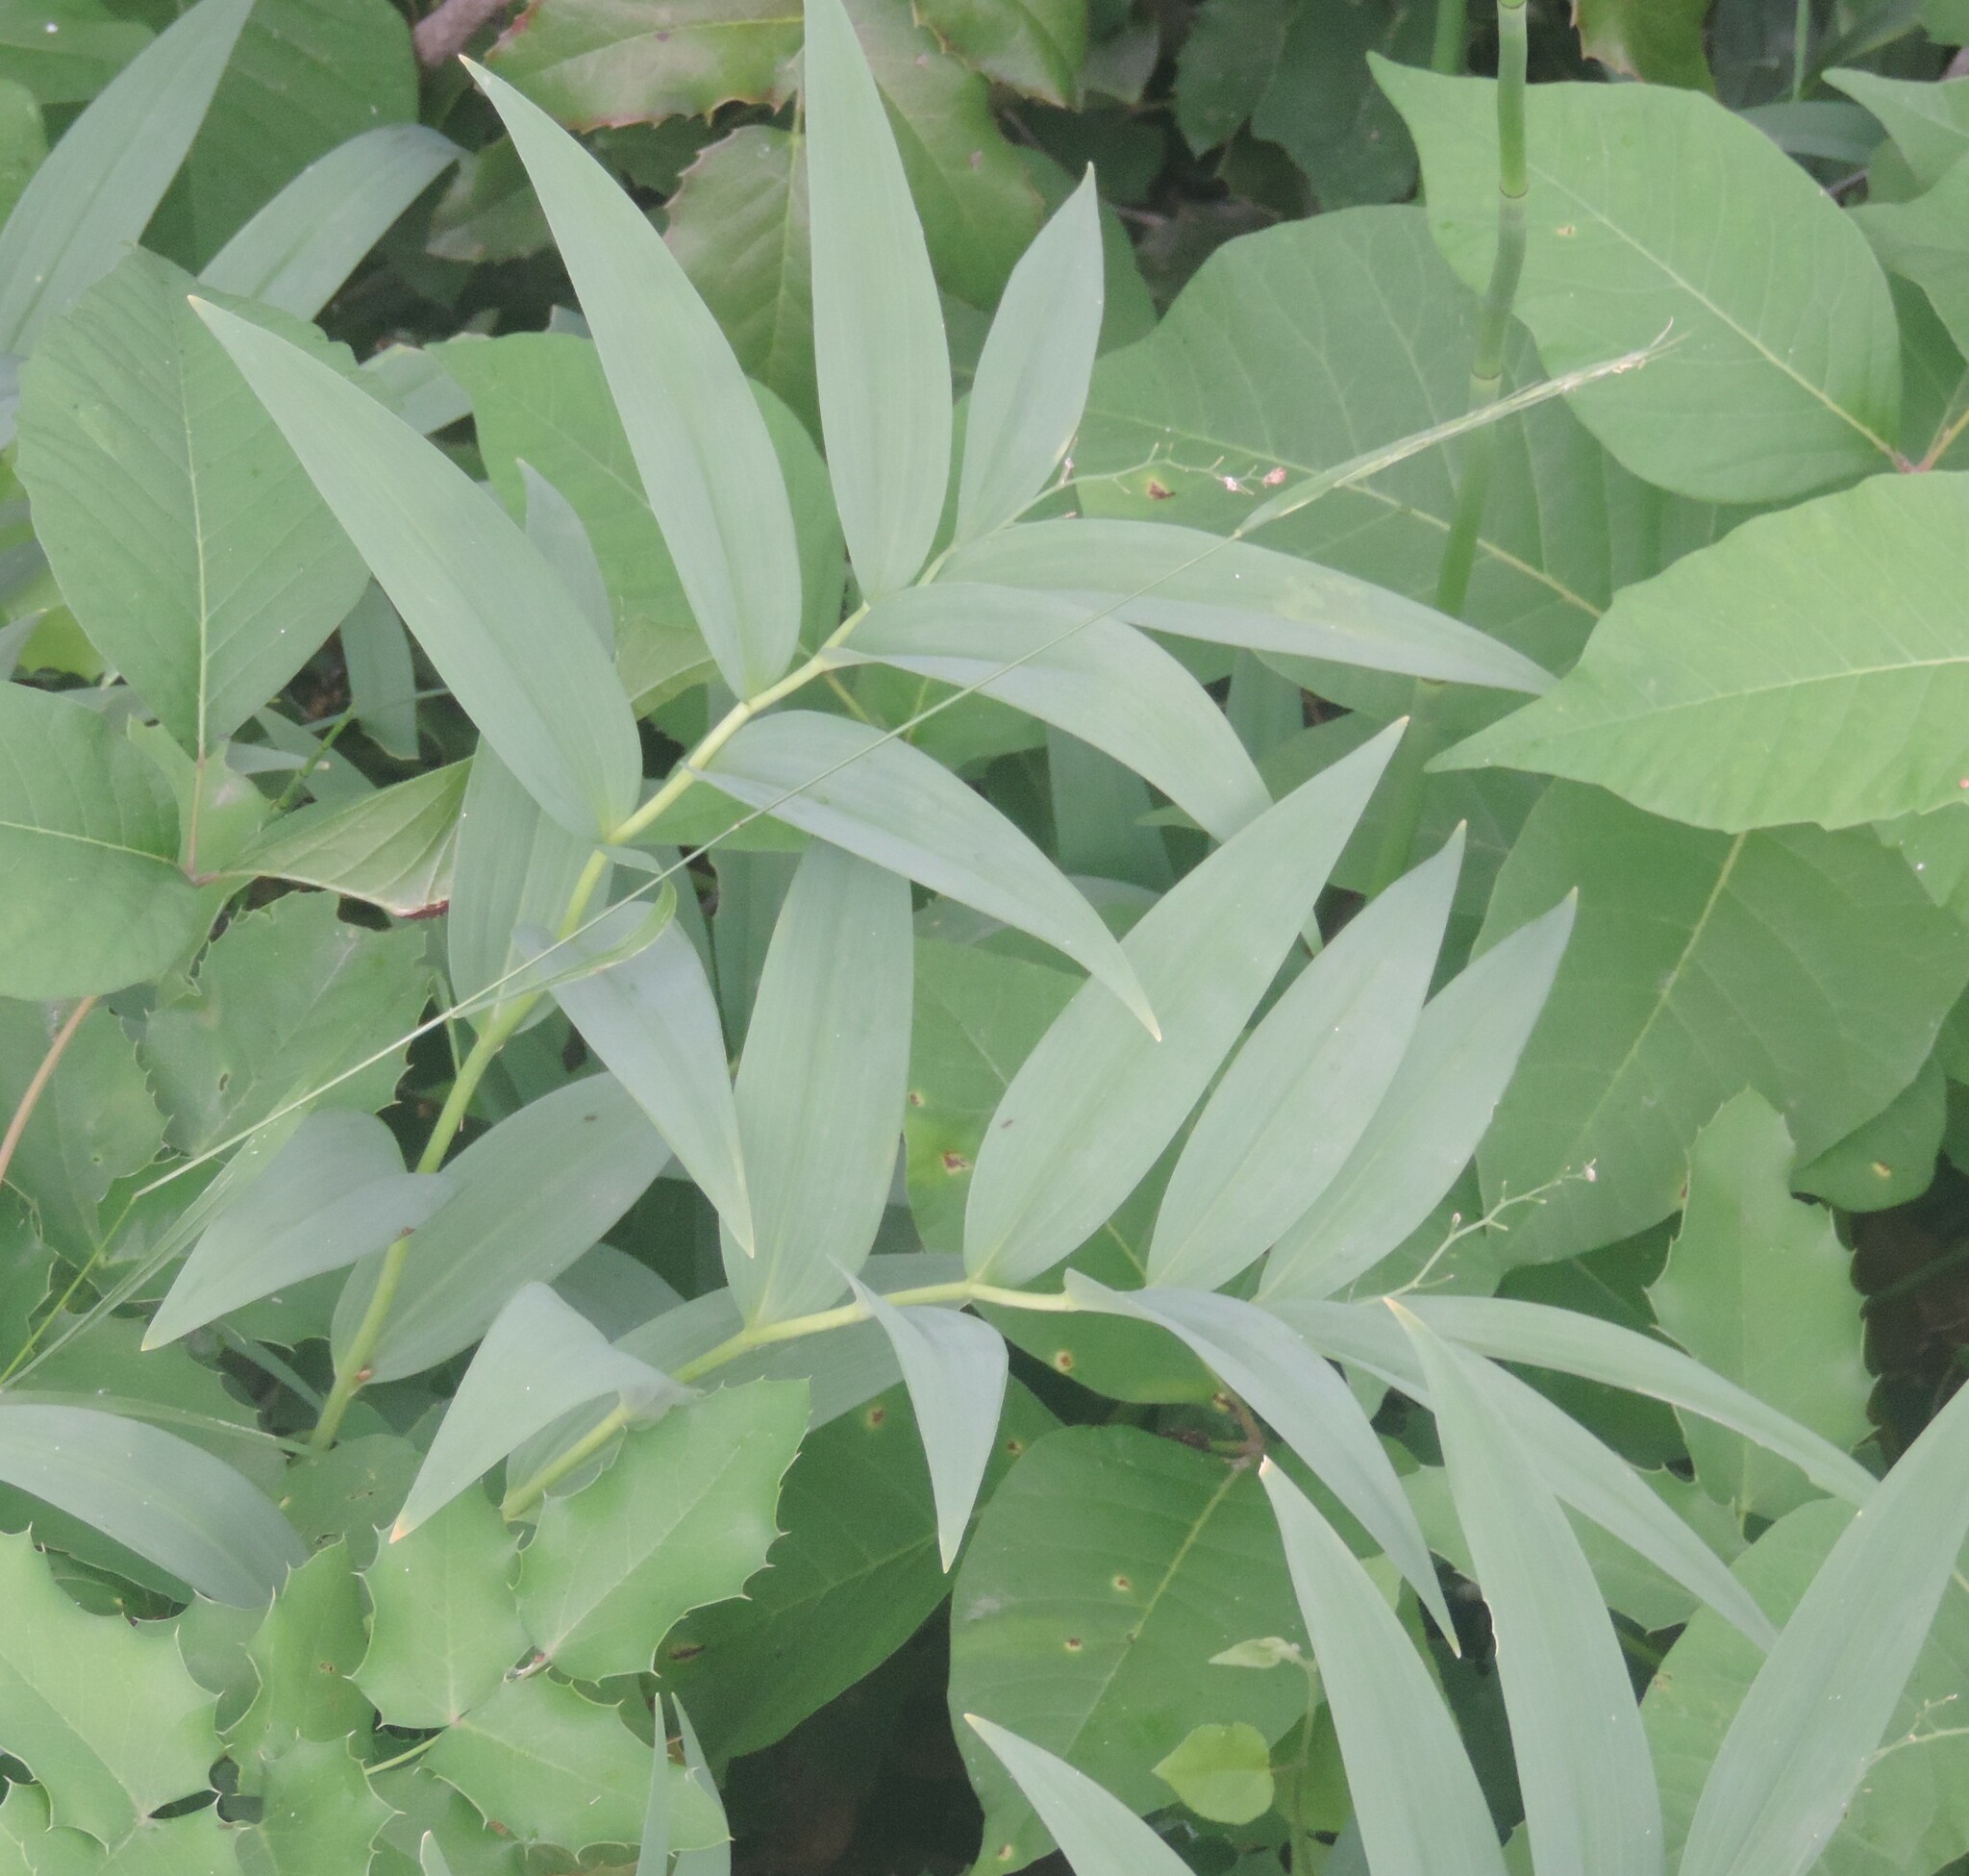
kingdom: Plantae
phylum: Tracheophyta
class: Liliopsida
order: Asparagales
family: Asparagaceae
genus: Maianthemum
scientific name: Maianthemum stellatum
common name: Little false solomon's seal
